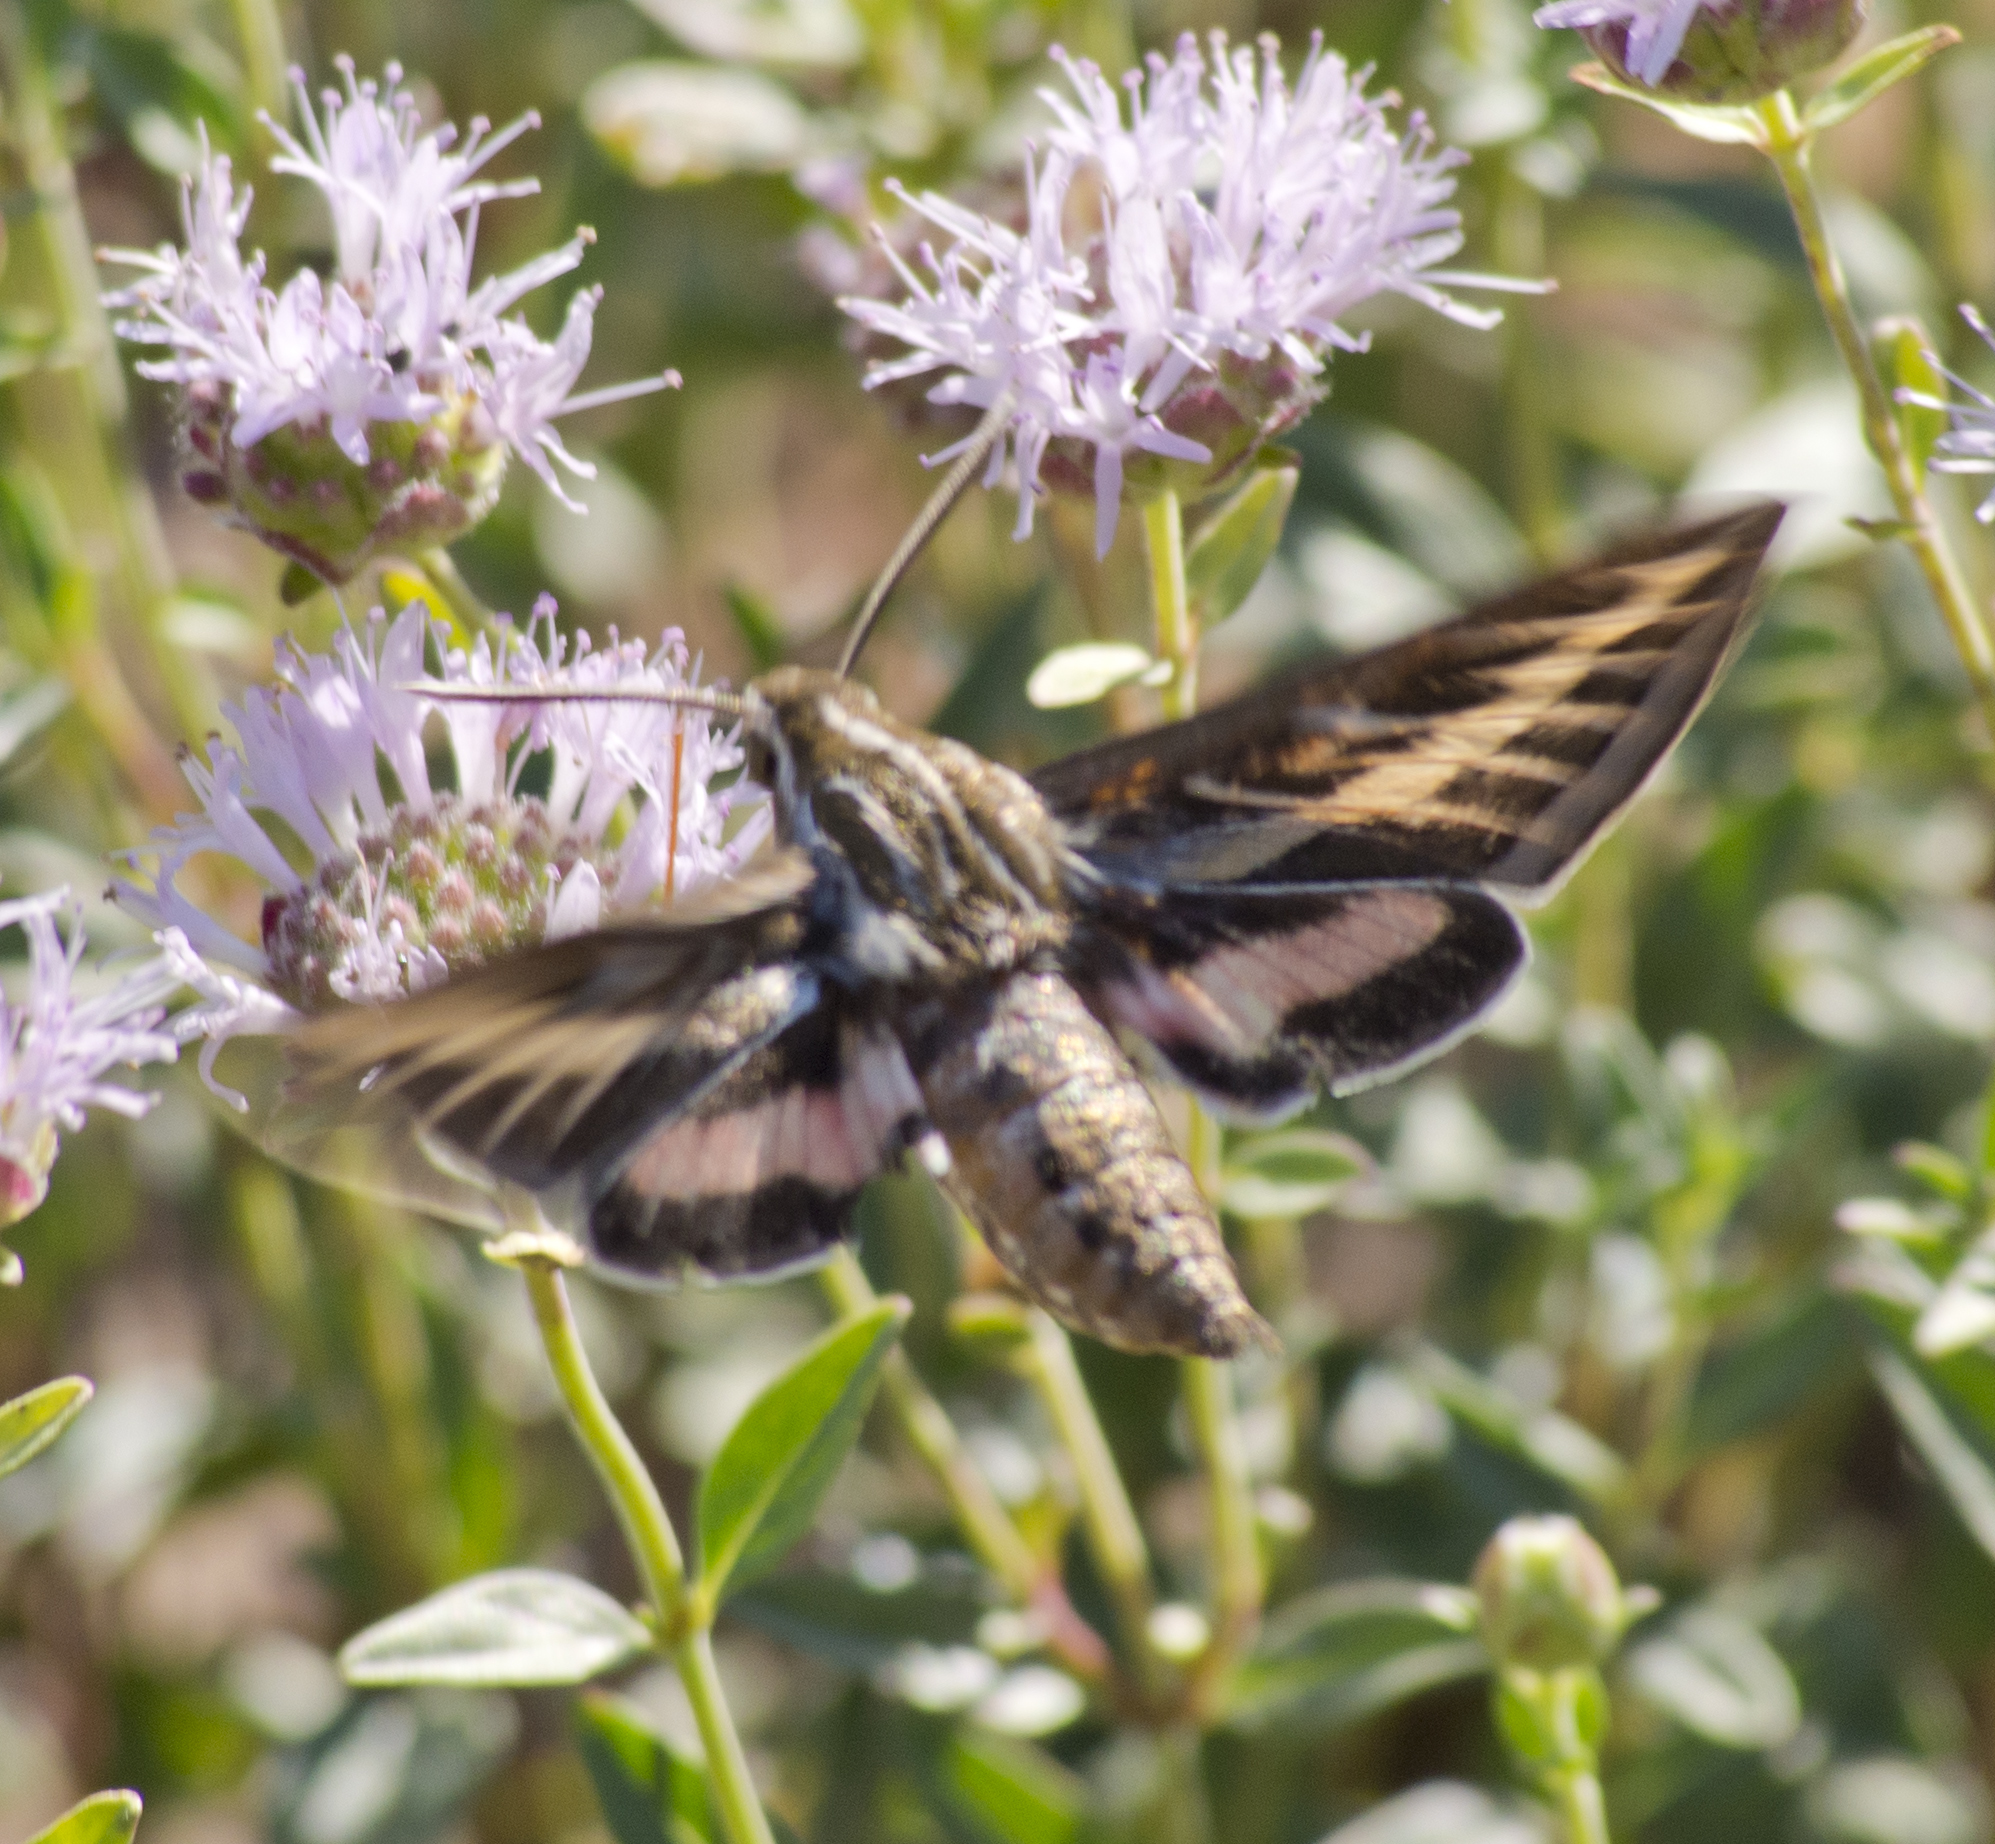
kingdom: Animalia
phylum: Arthropoda
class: Insecta
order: Lepidoptera
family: Sphingidae
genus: Hyles
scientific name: Hyles lineata
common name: White-lined sphinx
